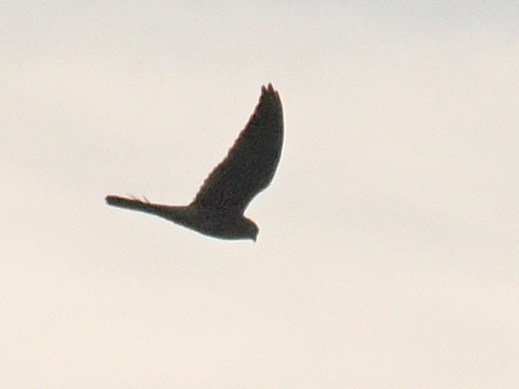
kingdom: Animalia
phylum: Chordata
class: Aves
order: Falconiformes
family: Falconidae
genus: Falco
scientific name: Falco tinnunculus
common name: Common kestrel
